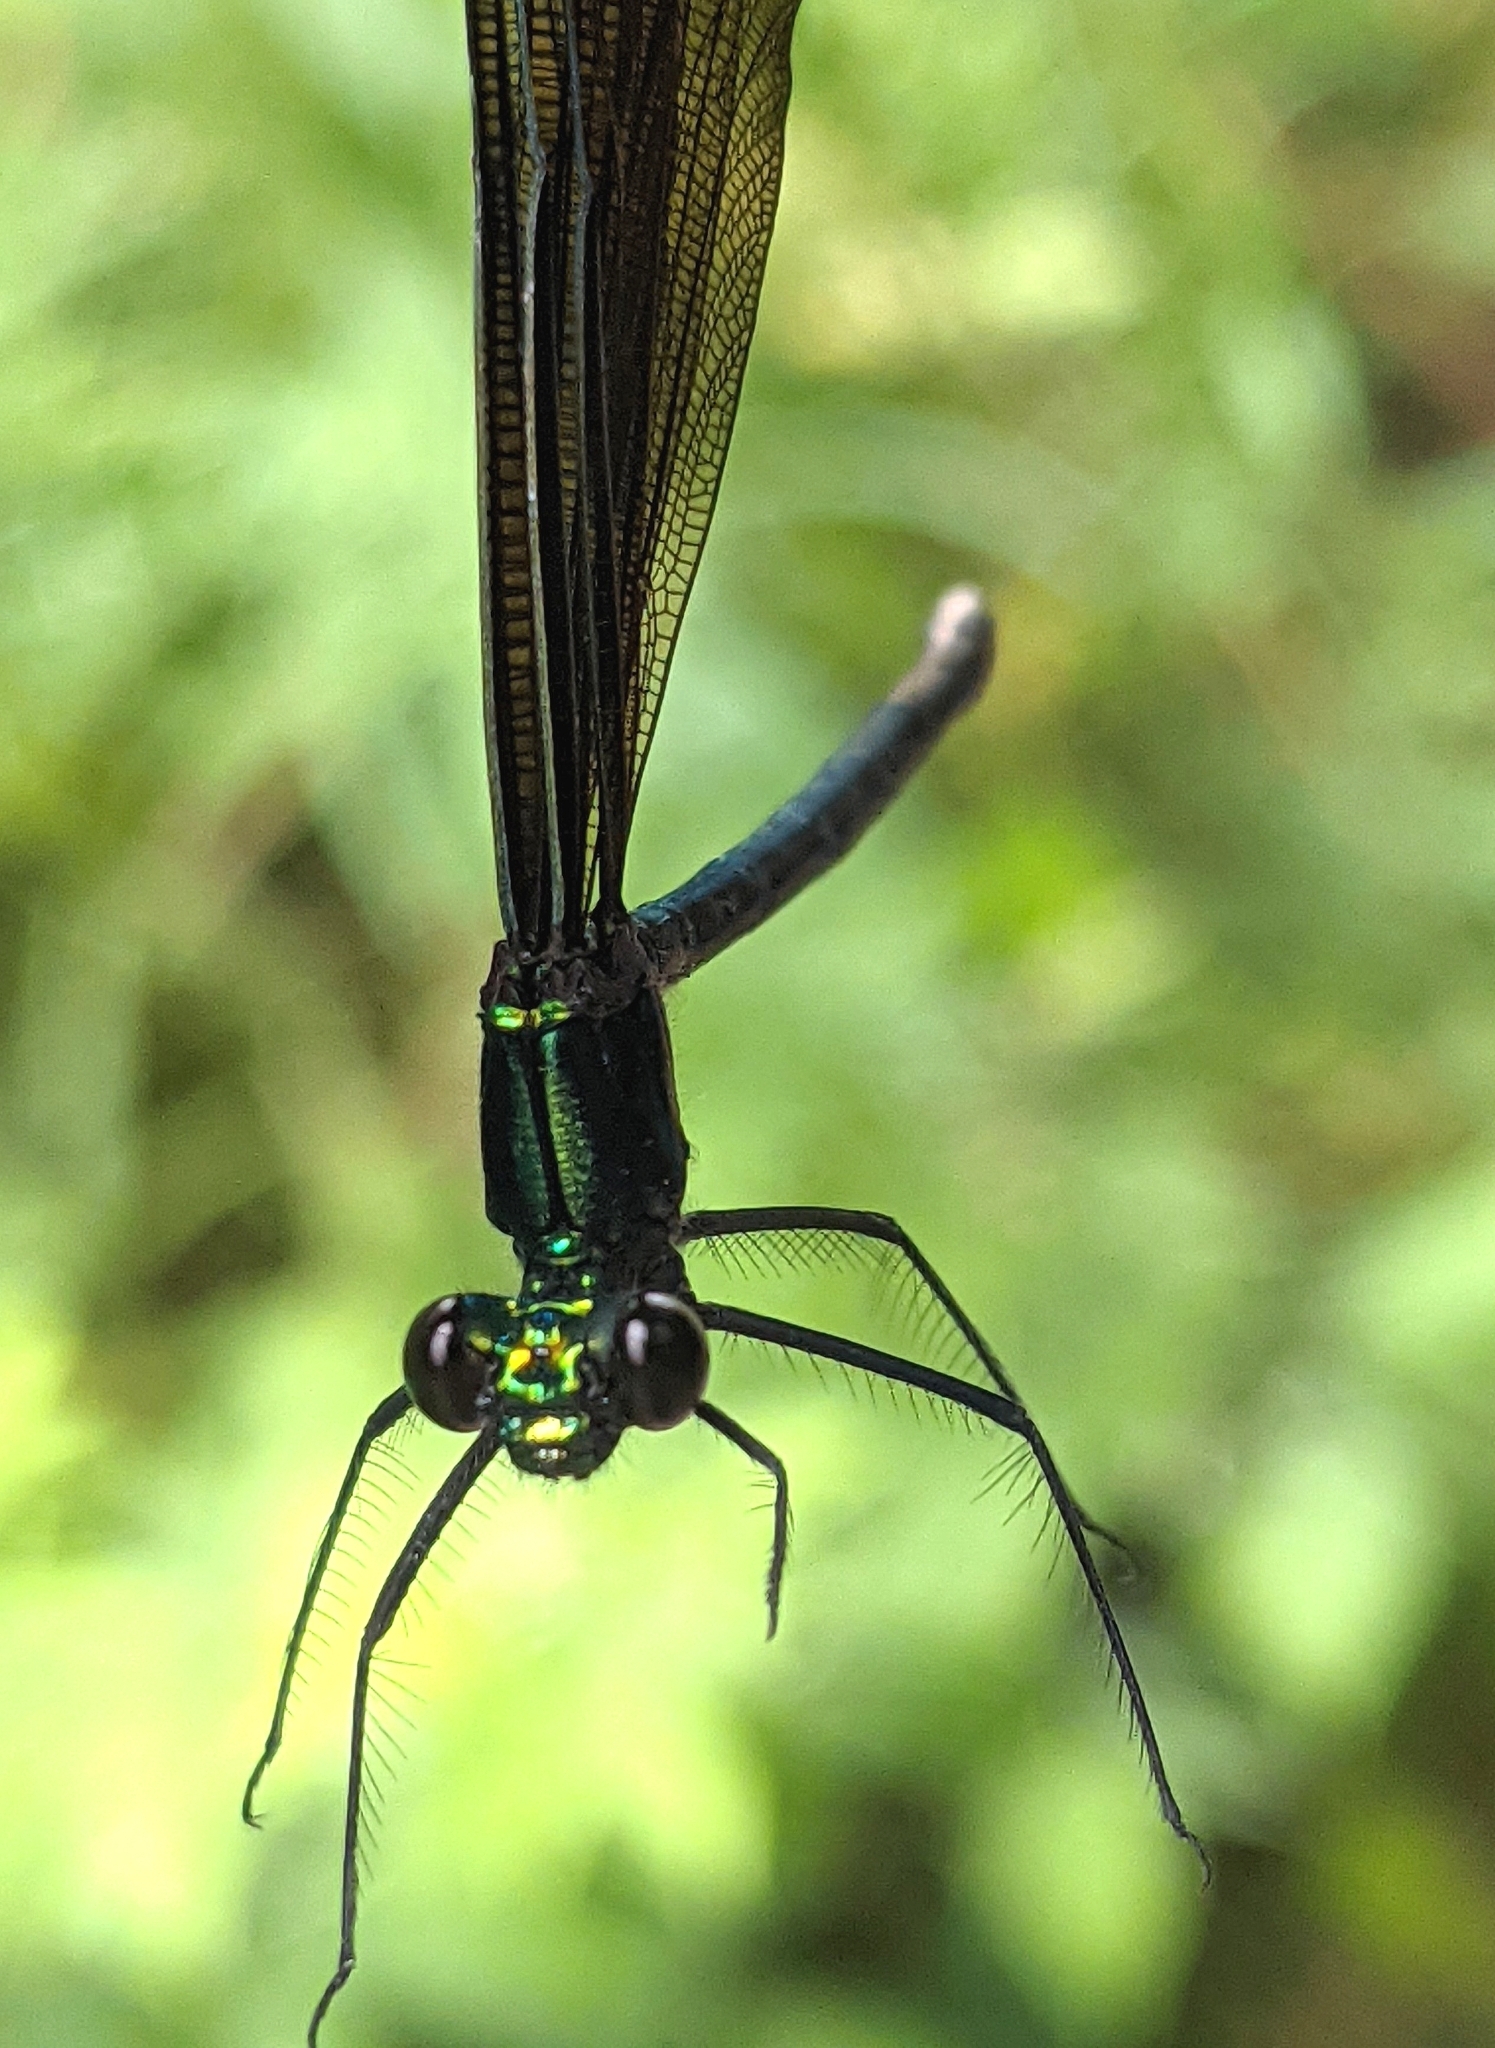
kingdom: Animalia
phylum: Arthropoda
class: Insecta
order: Odonata
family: Calopterygidae
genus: Calopteryx
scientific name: Calopteryx maculata
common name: Ebony jewelwing
